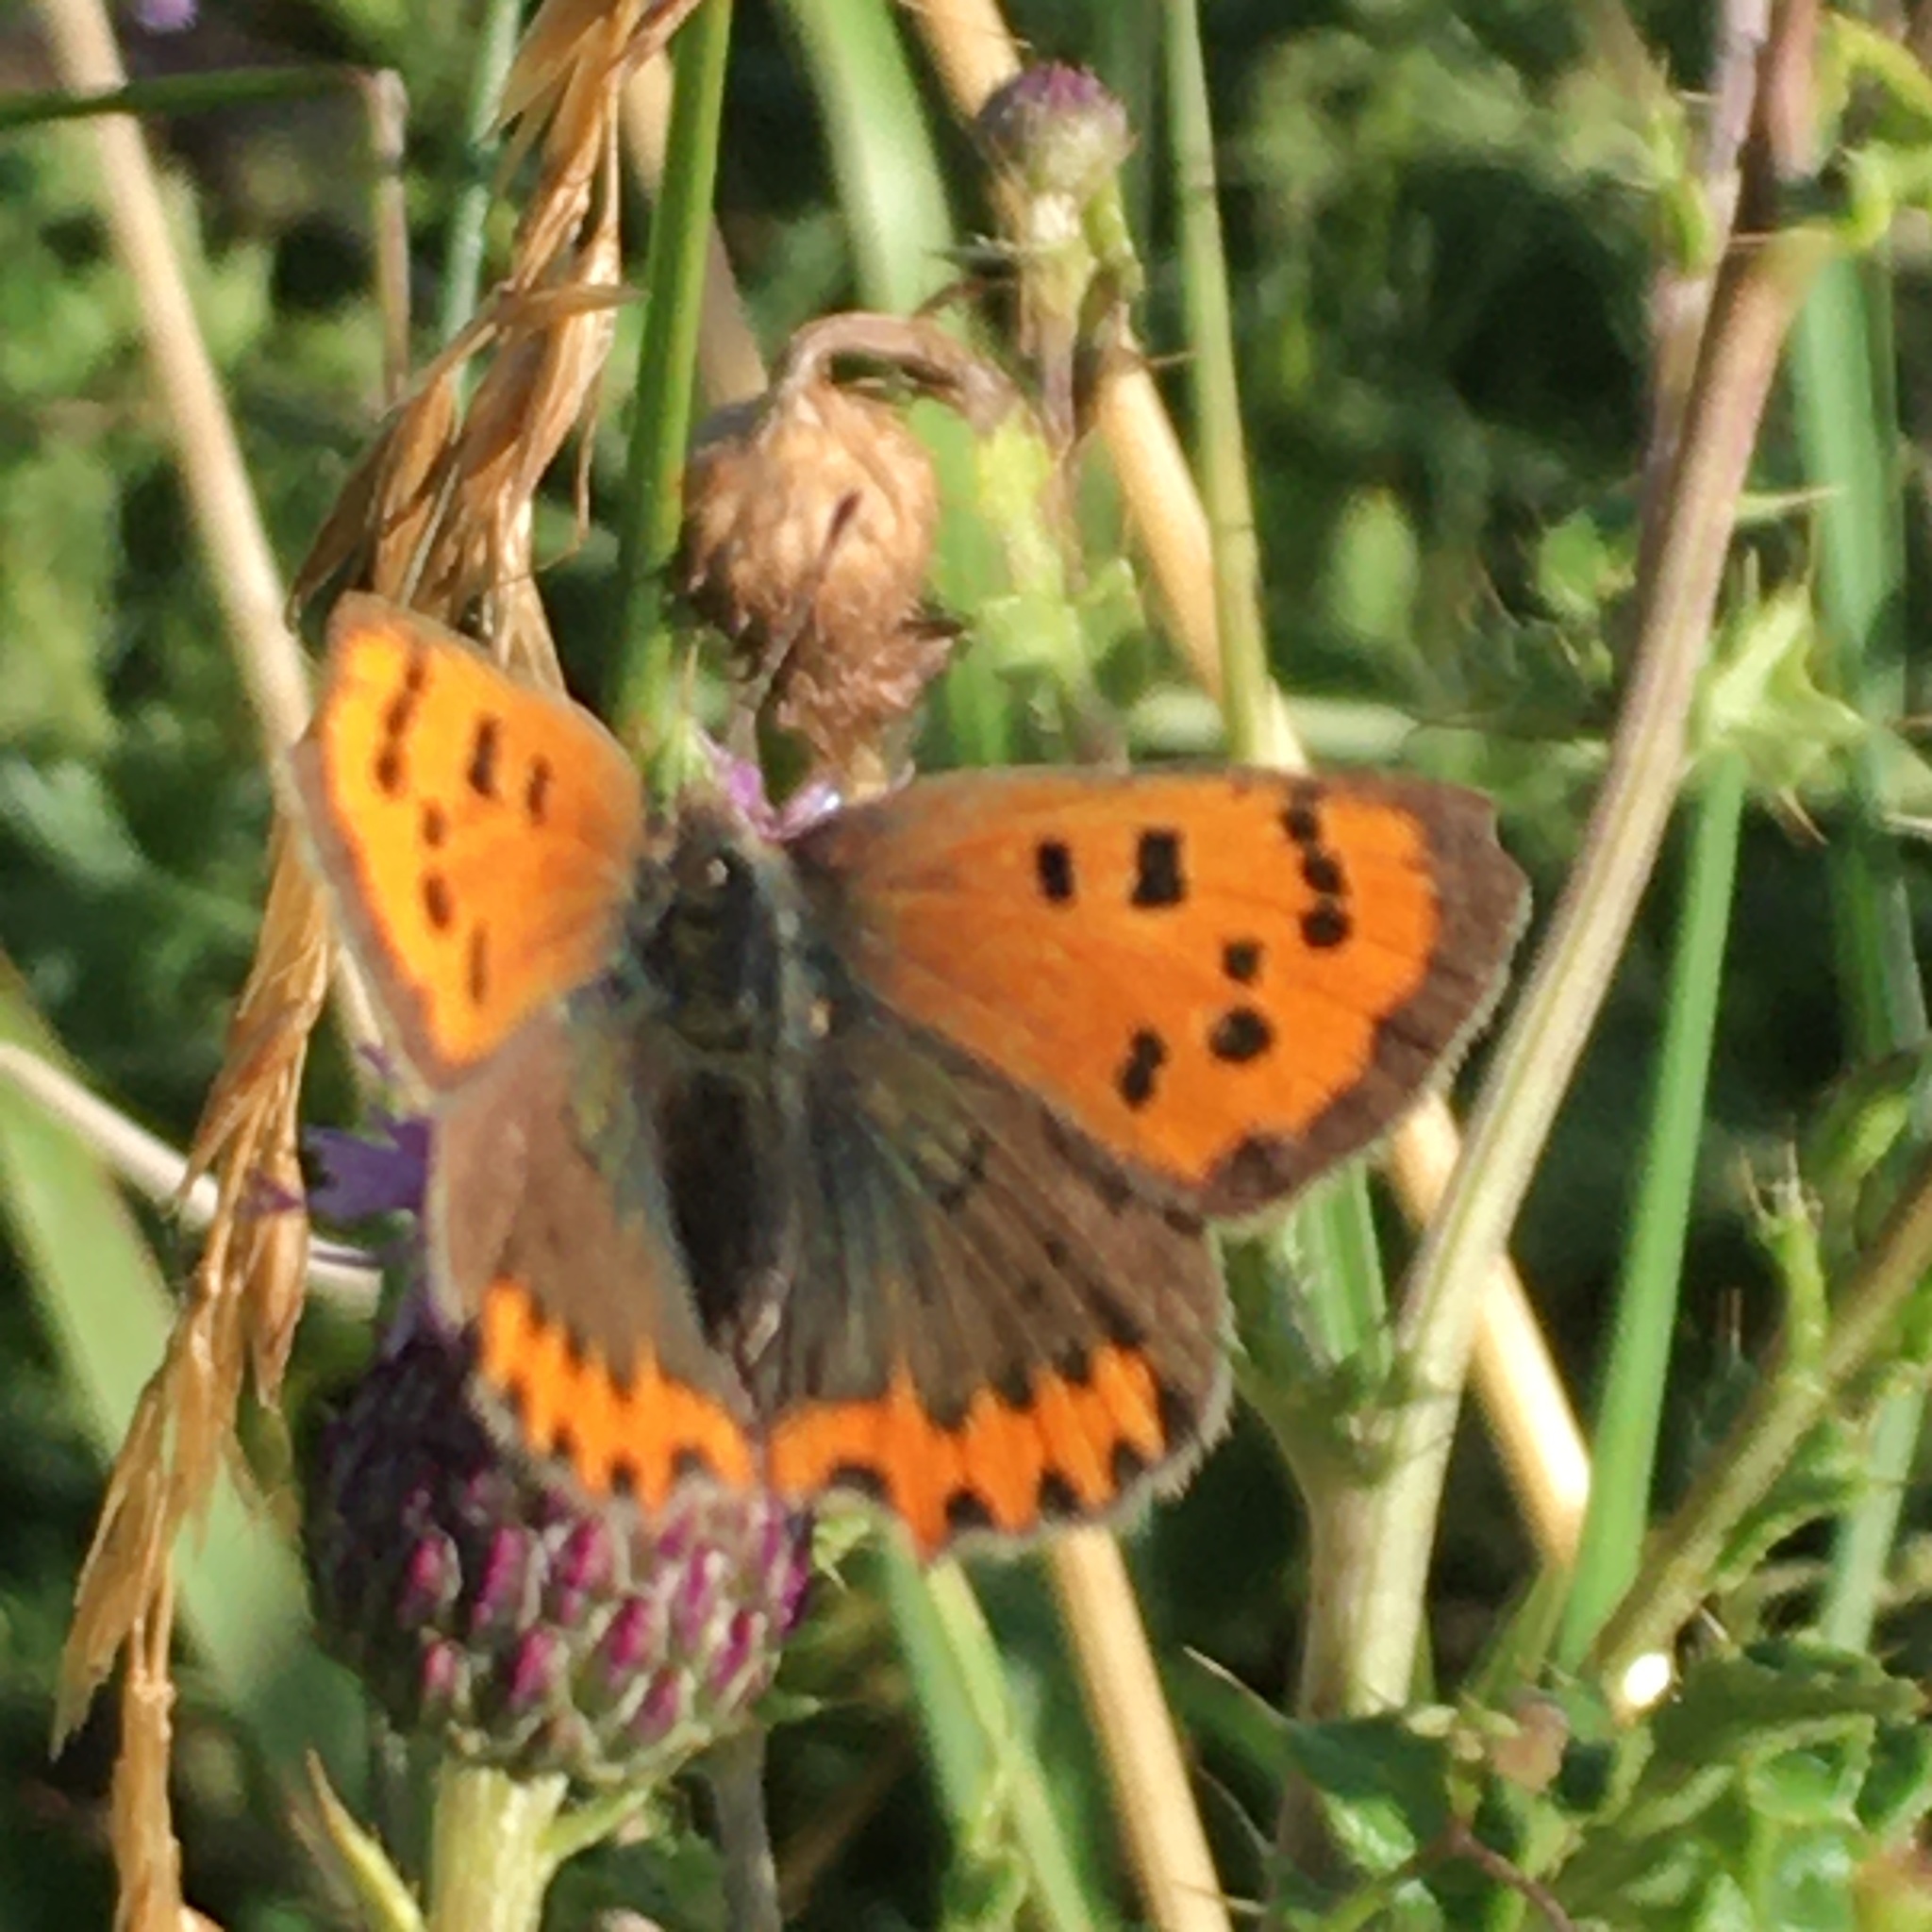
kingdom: Animalia
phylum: Arthropoda
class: Insecta
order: Lepidoptera
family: Lycaenidae
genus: Lycaena
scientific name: Lycaena phlaeas
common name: Small copper
